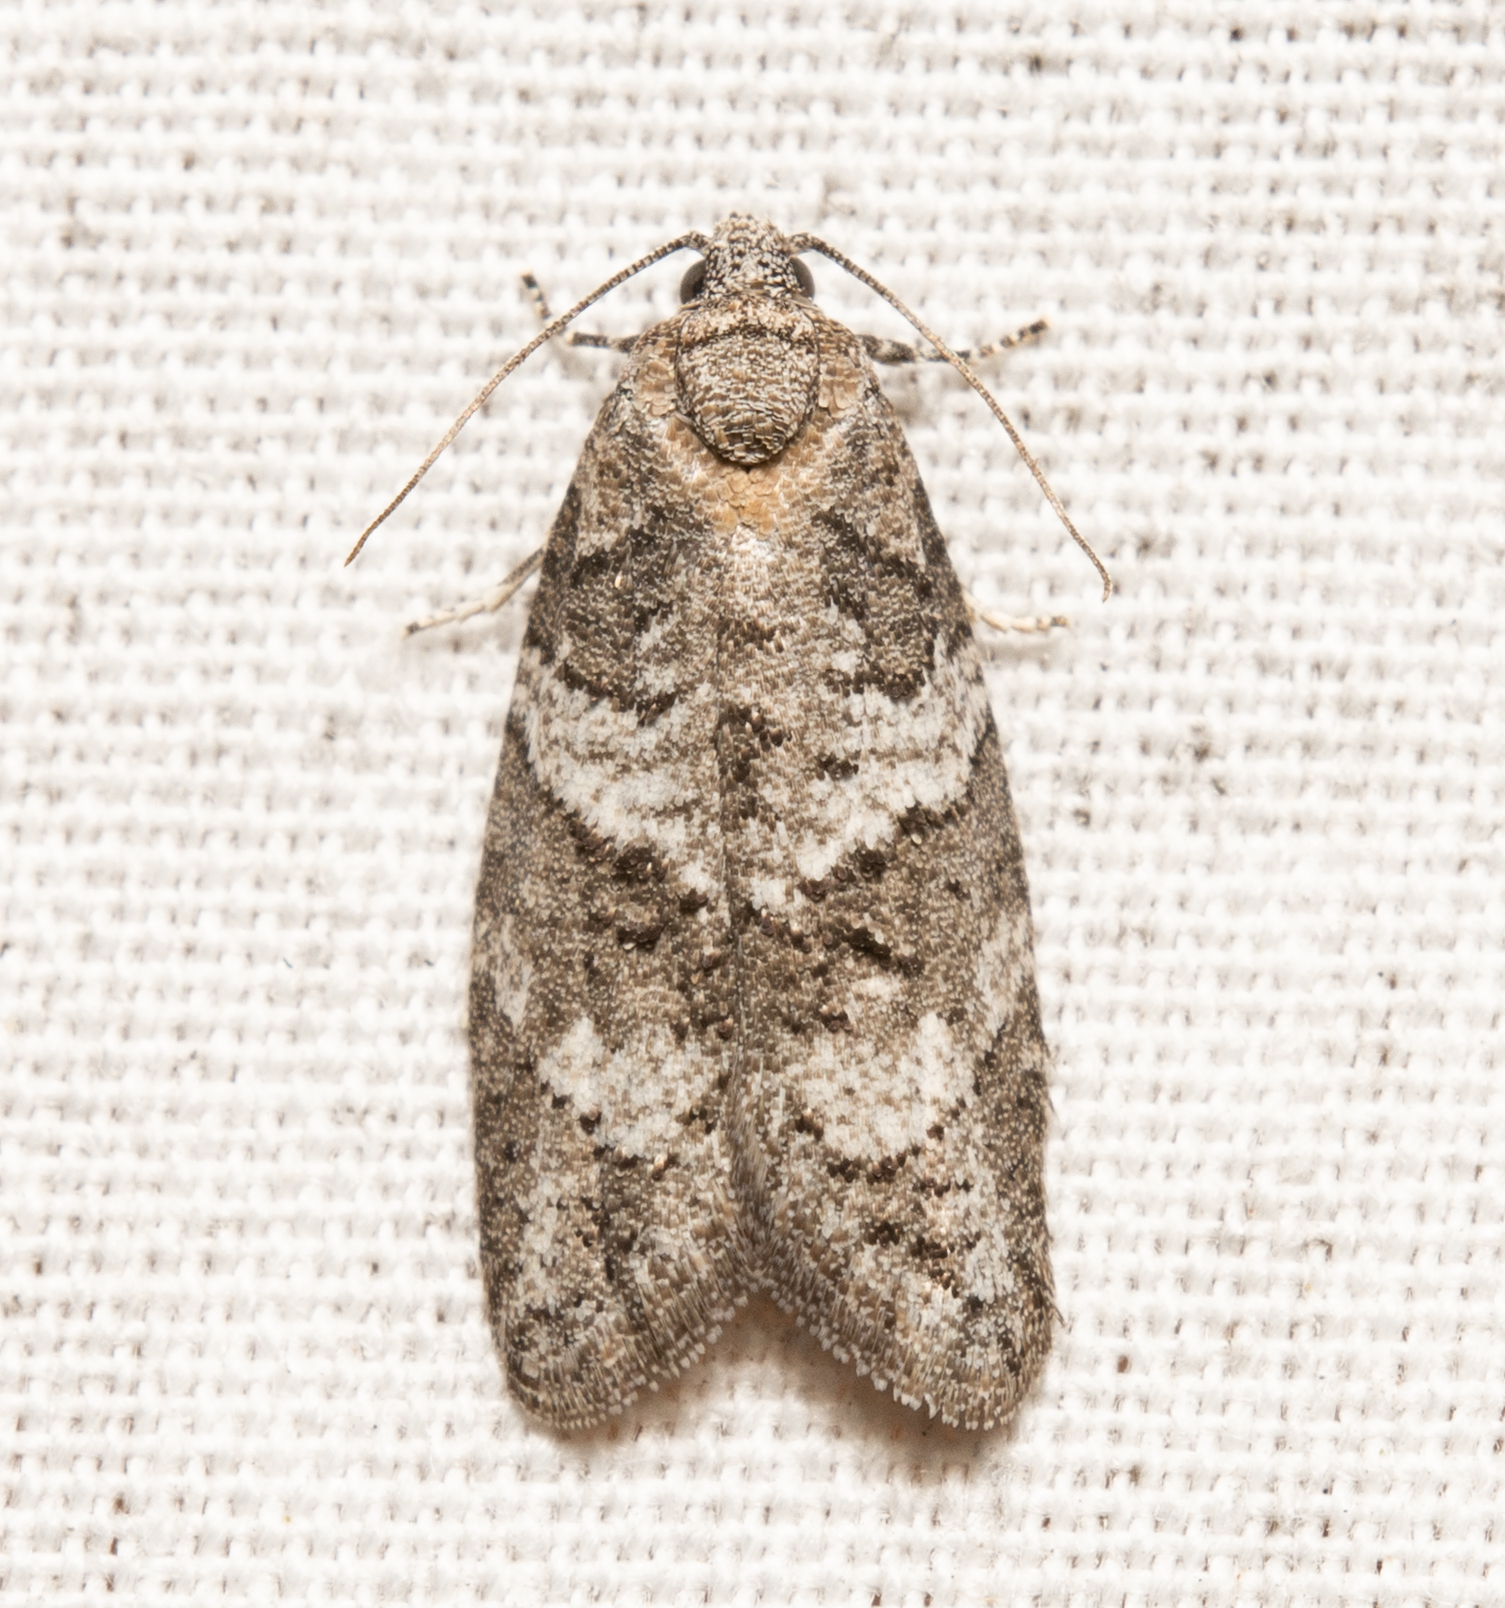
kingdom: Animalia
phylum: Arthropoda
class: Insecta
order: Lepidoptera
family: Tortricidae
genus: Decodes
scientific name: Decodes basiplagana
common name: Gray-marked tortricid
